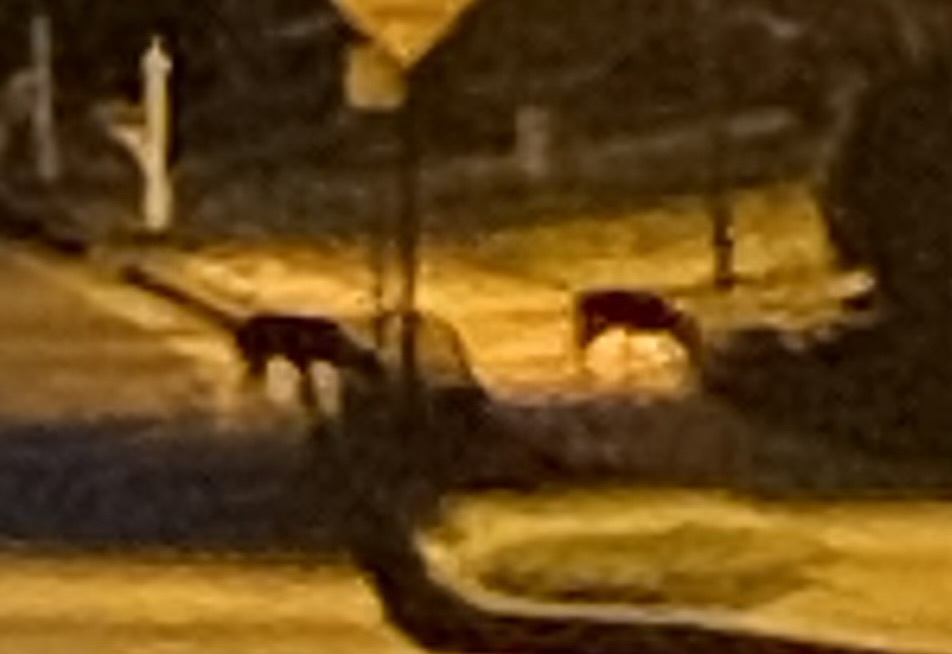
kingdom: Animalia
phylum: Chordata
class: Mammalia
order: Artiodactyla
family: Cervidae
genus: Odocoileus
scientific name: Odocoileus virginianus
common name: White-tailed deer
